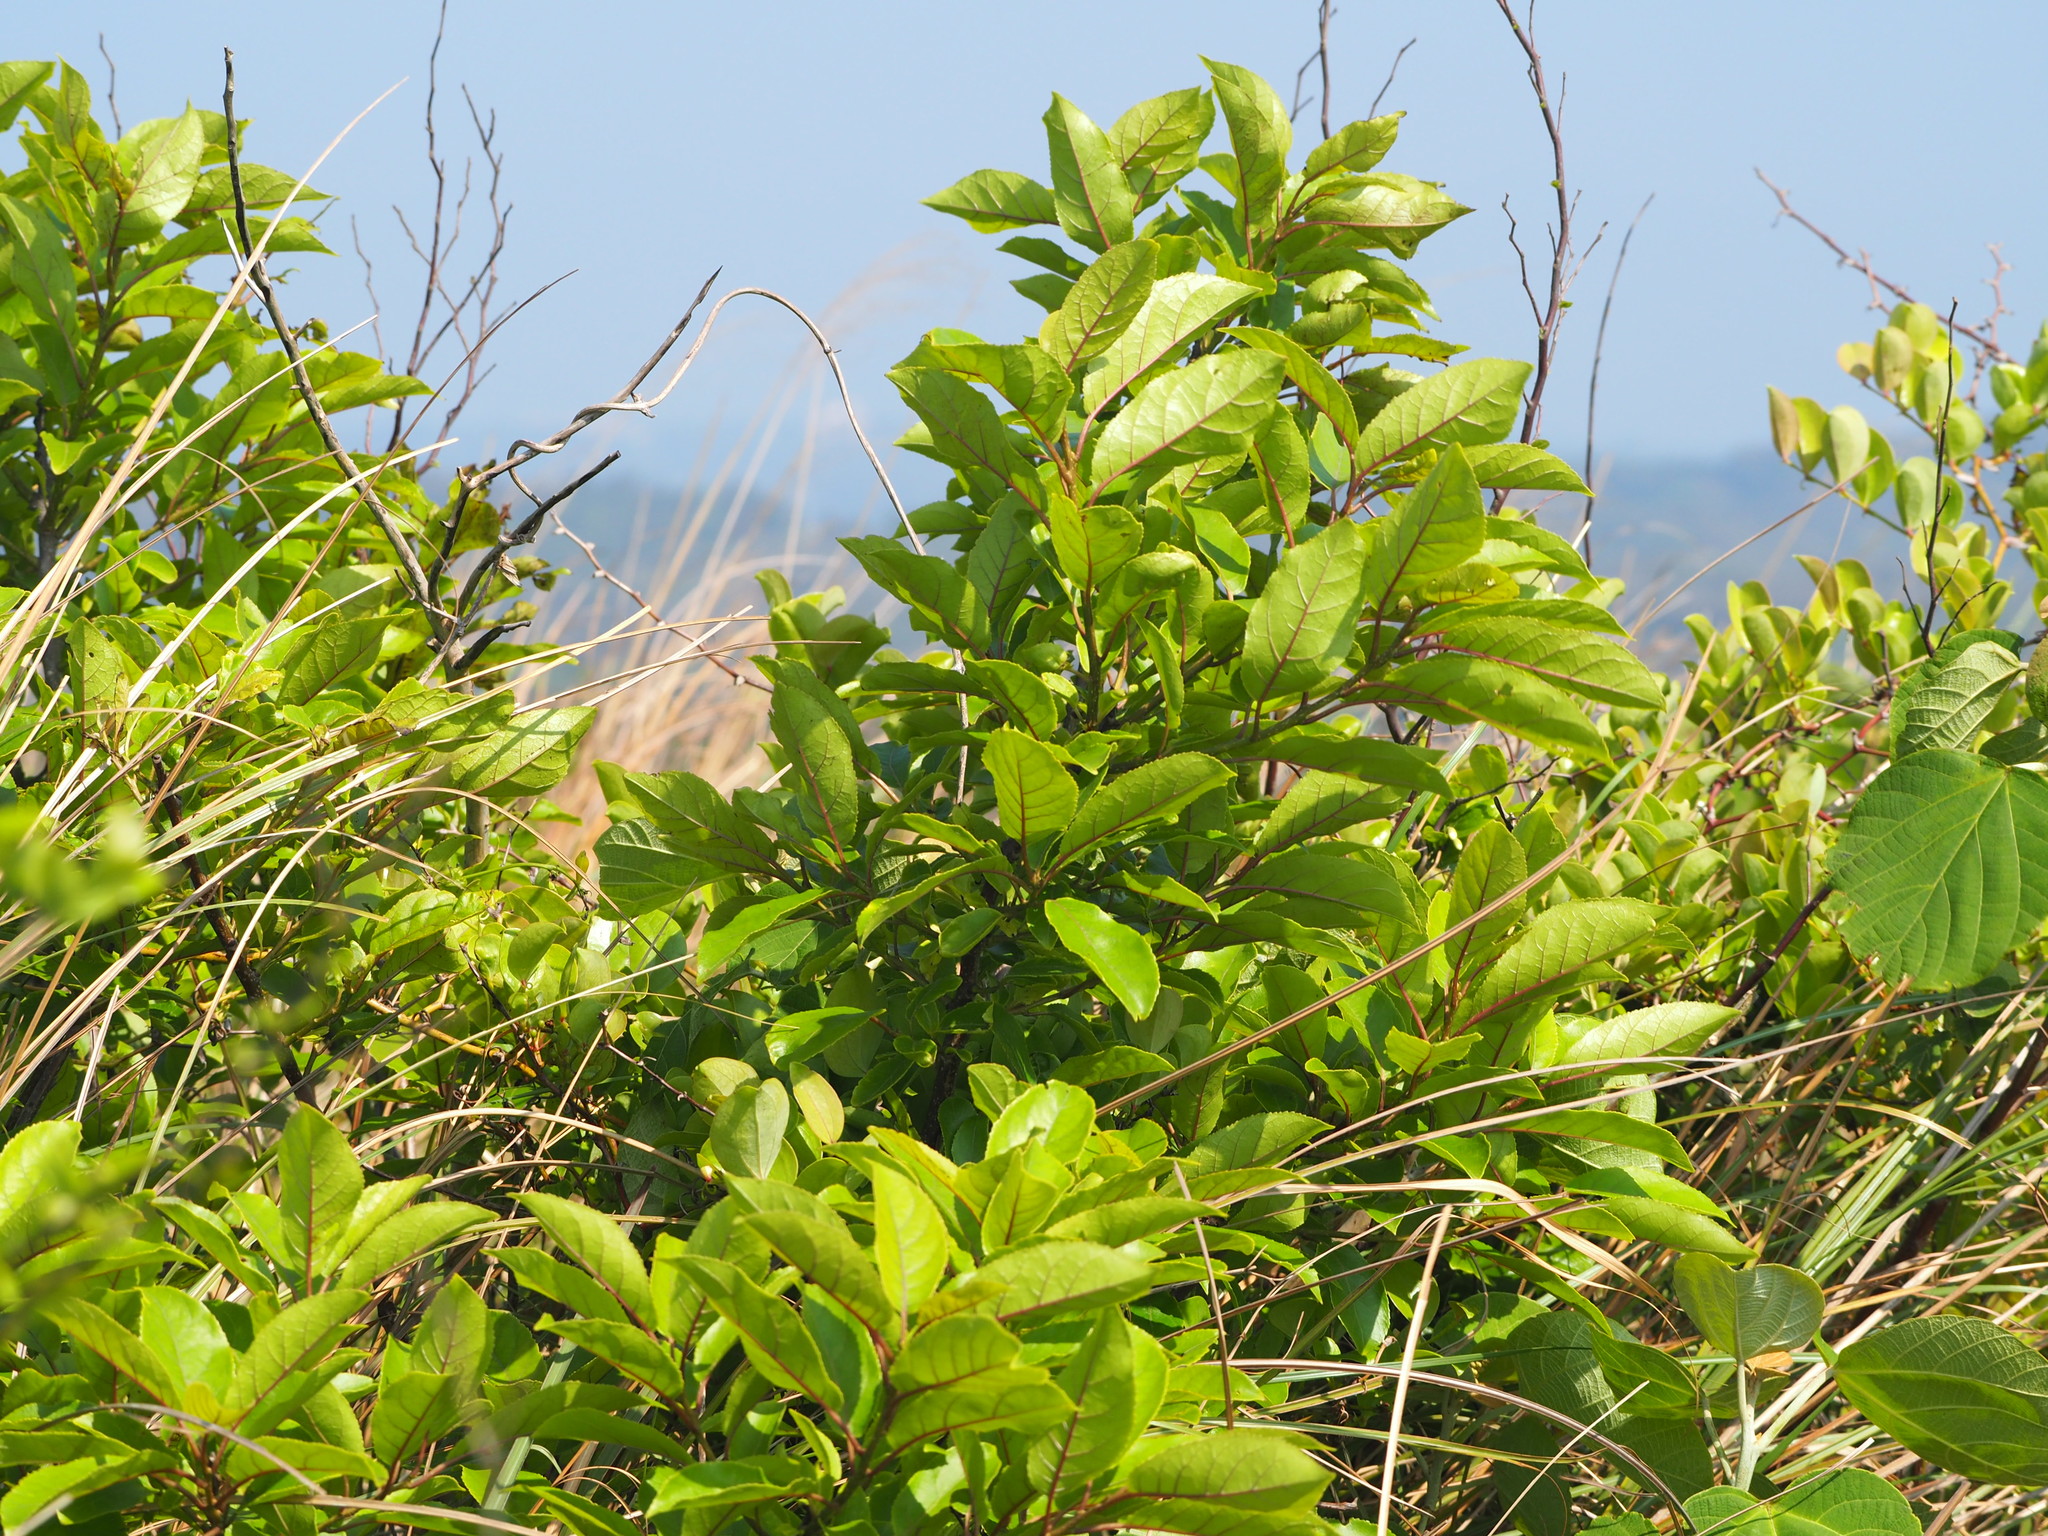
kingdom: Plantae
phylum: Tracheophyta
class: Magnoliopsida
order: Boraginales
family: Ehretiaceae
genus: Ehretia
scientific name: Ehretia acuminata
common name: Kodo wood
